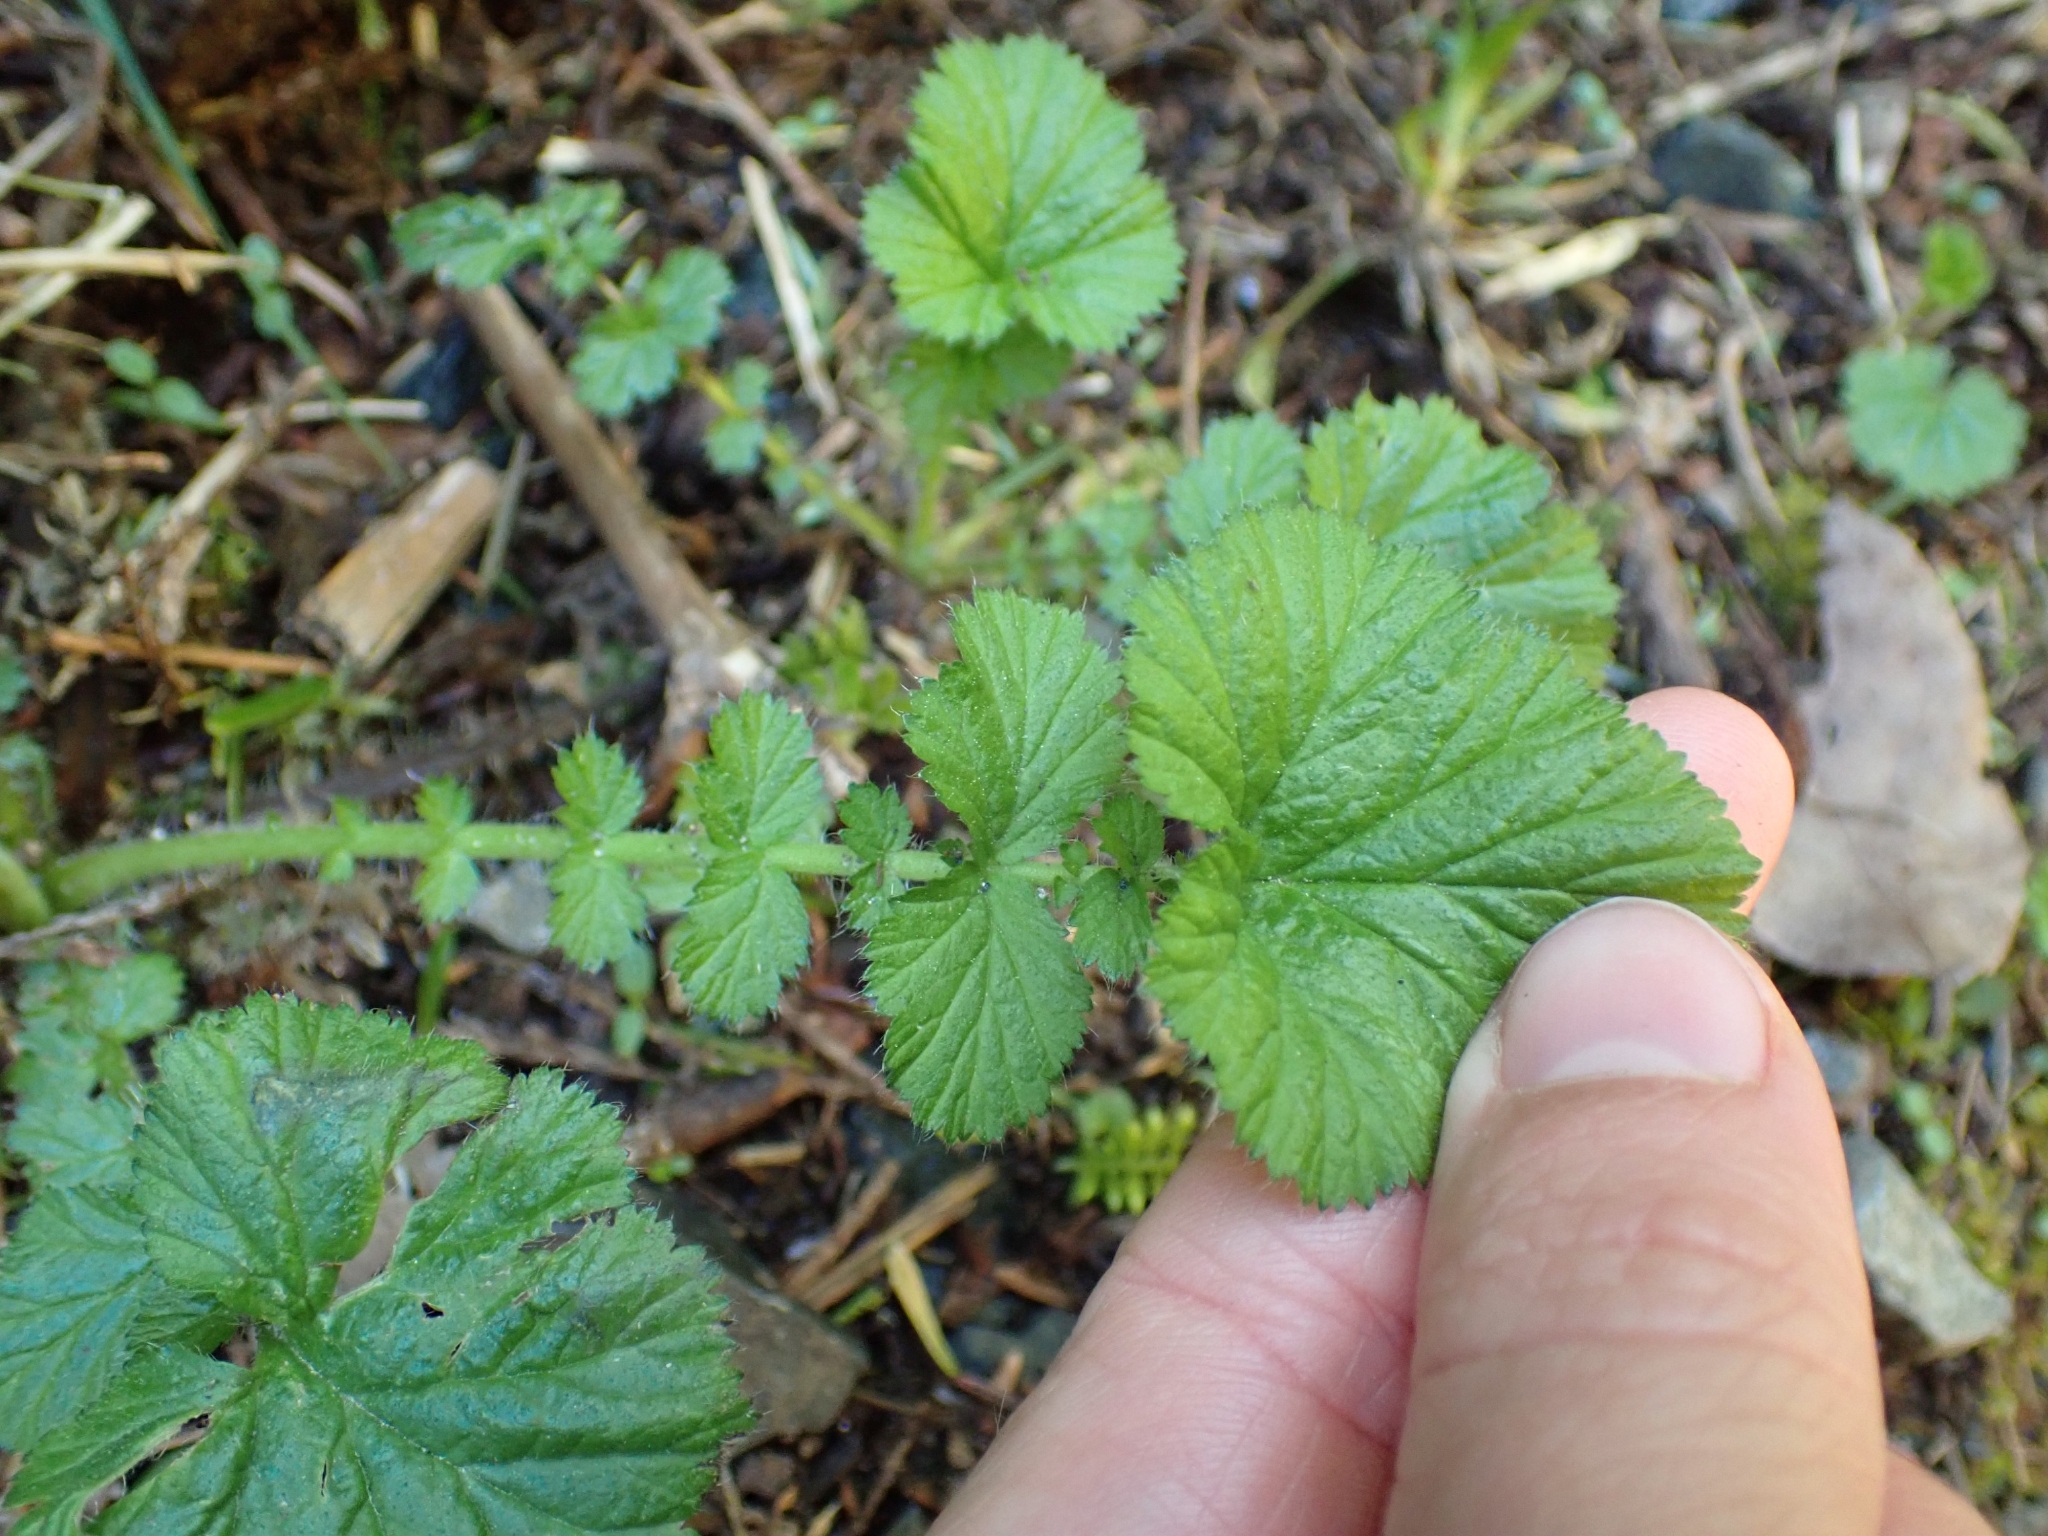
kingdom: Plantae
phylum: Tracheophyta
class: Magnoliopsida
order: Rosales
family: Rosaceae
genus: Geum
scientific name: Geum macrophyllum
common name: Large-leaved avens
